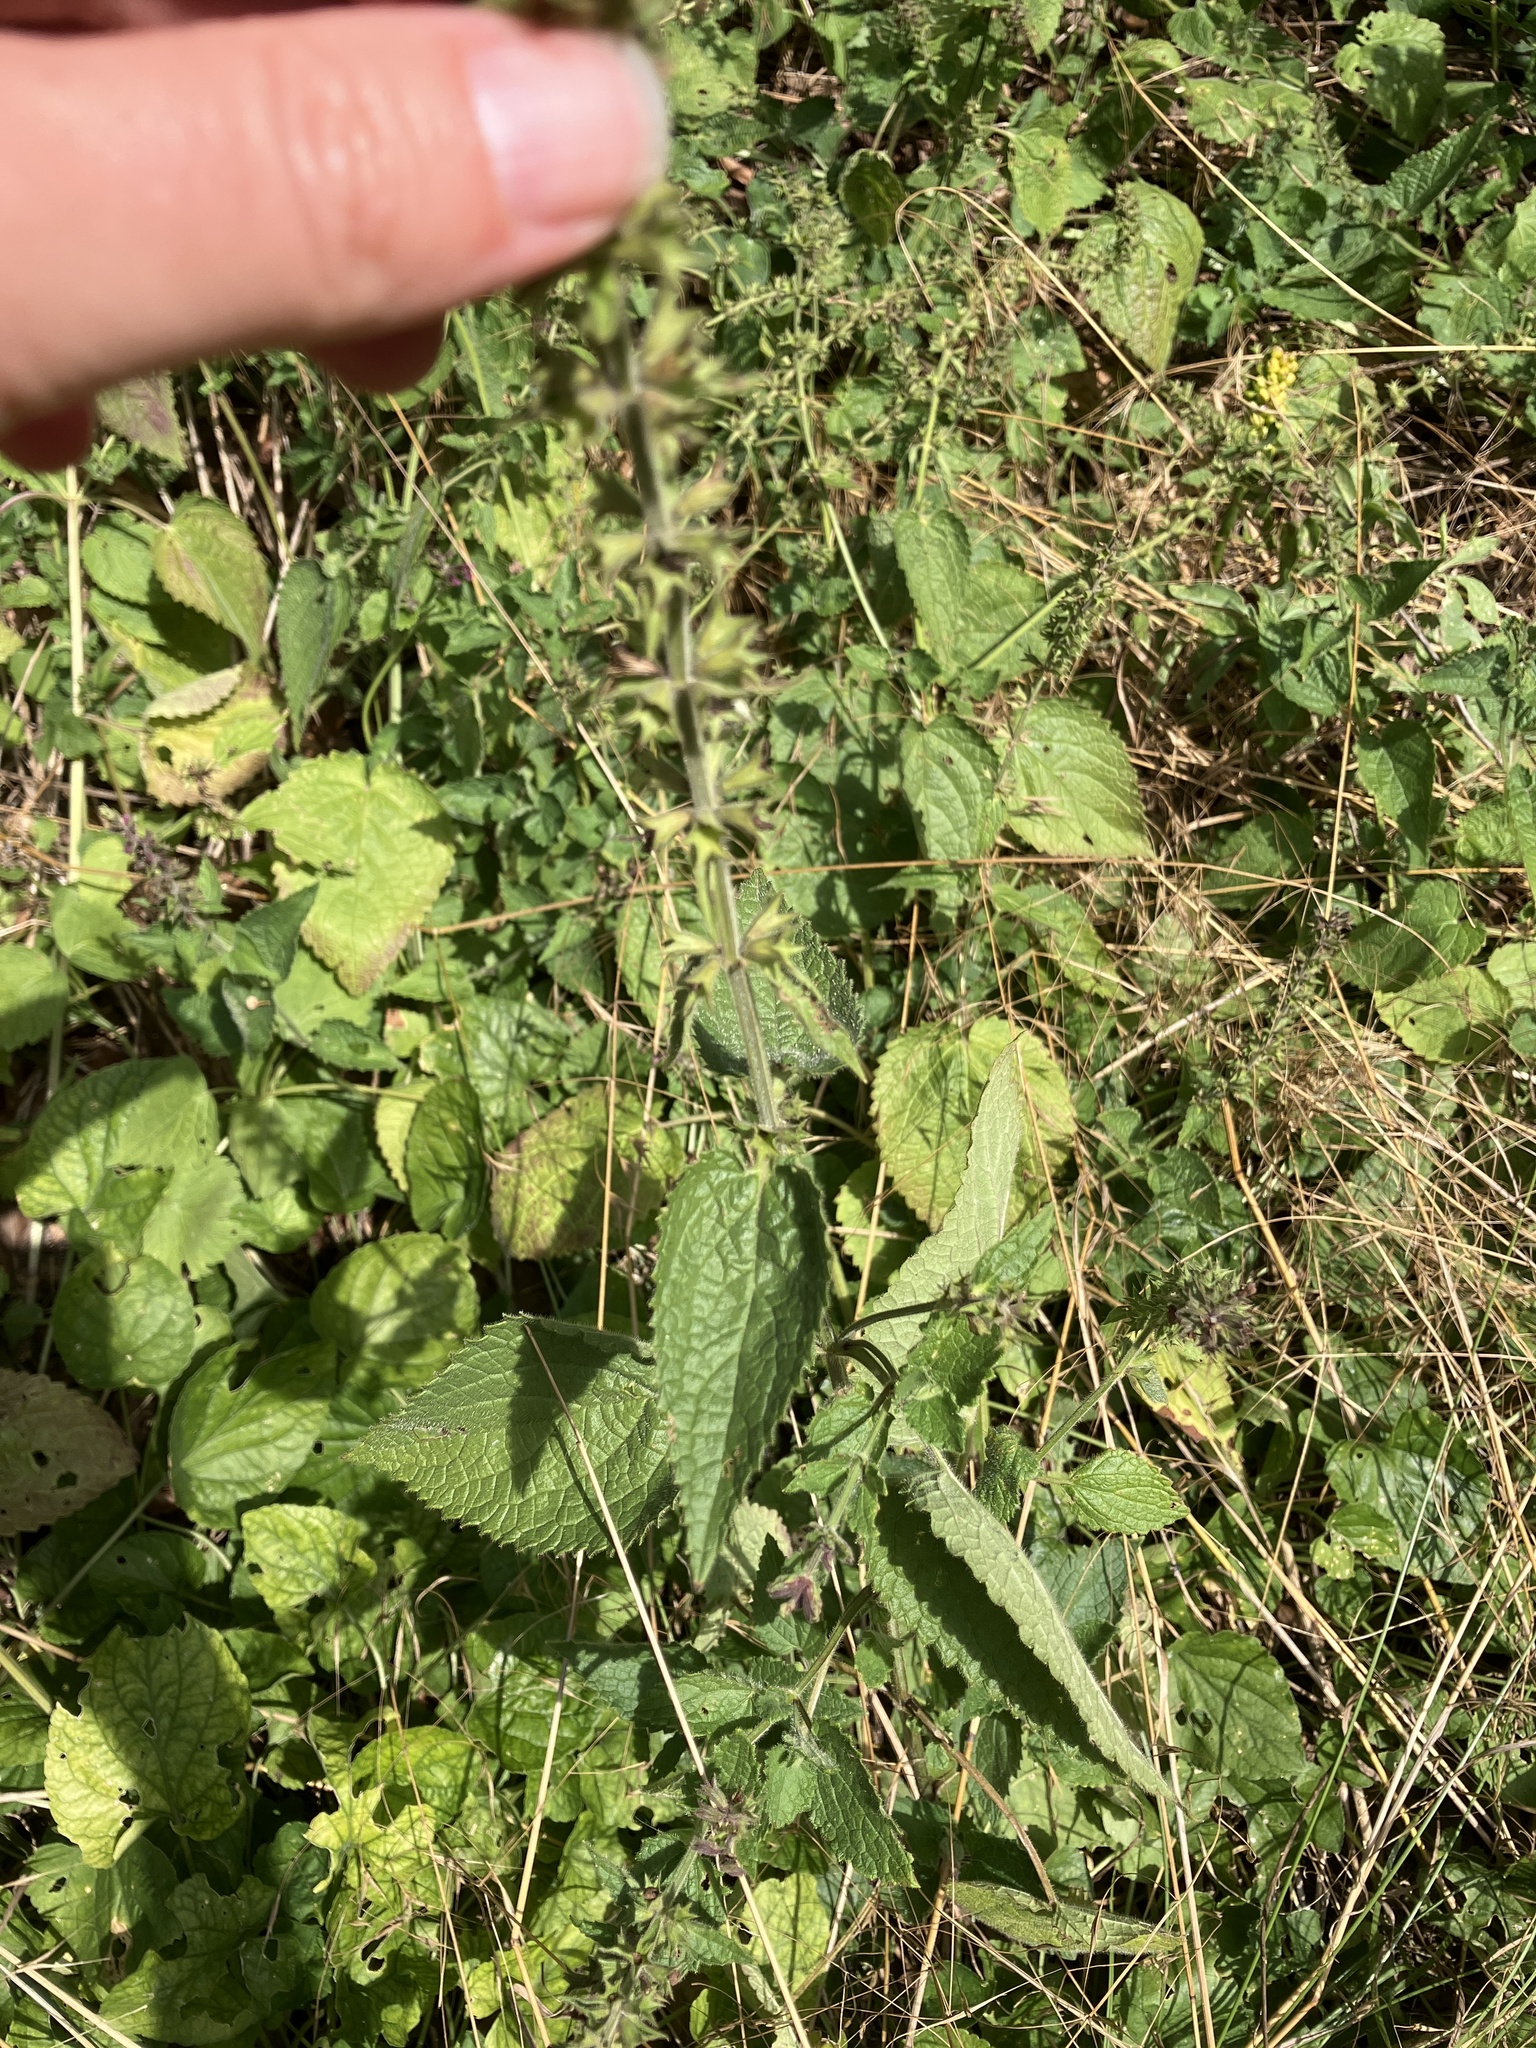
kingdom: Plantae
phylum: Tracheophyta
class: Magnoliopsida
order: Lamiales
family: Lamiaceae
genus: Stachys
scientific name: Stachys sylvatica
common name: Hedge woundwort
